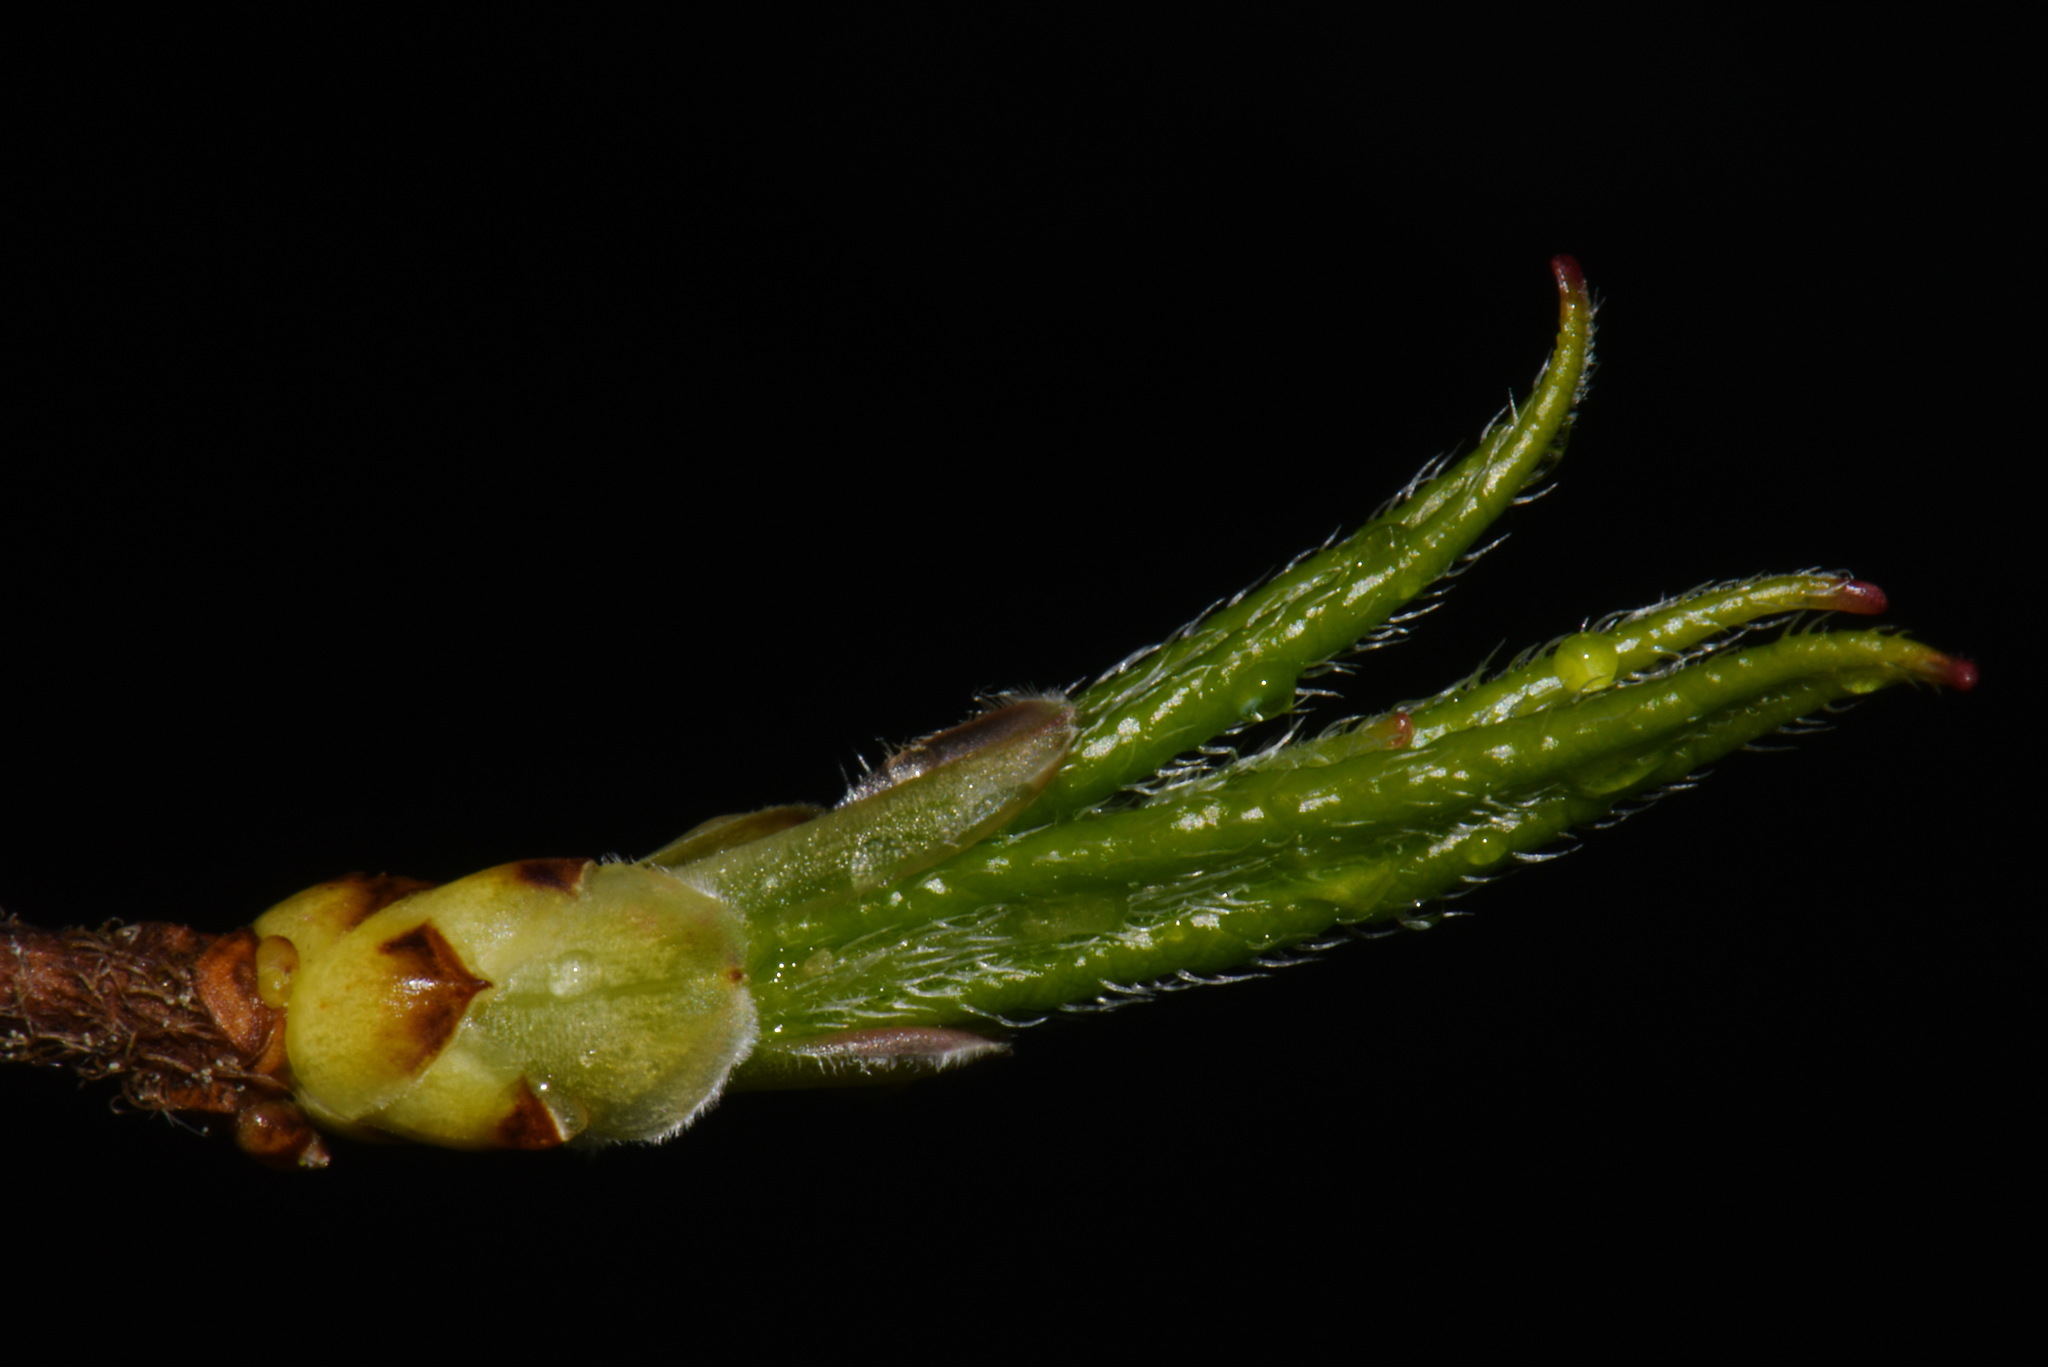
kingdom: Plantae
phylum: Tracheophyta
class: Magnoliopsida
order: Ericales
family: Ericaceae
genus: Rhododendron
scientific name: Rhododendron periclymenoides
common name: Election-pink
